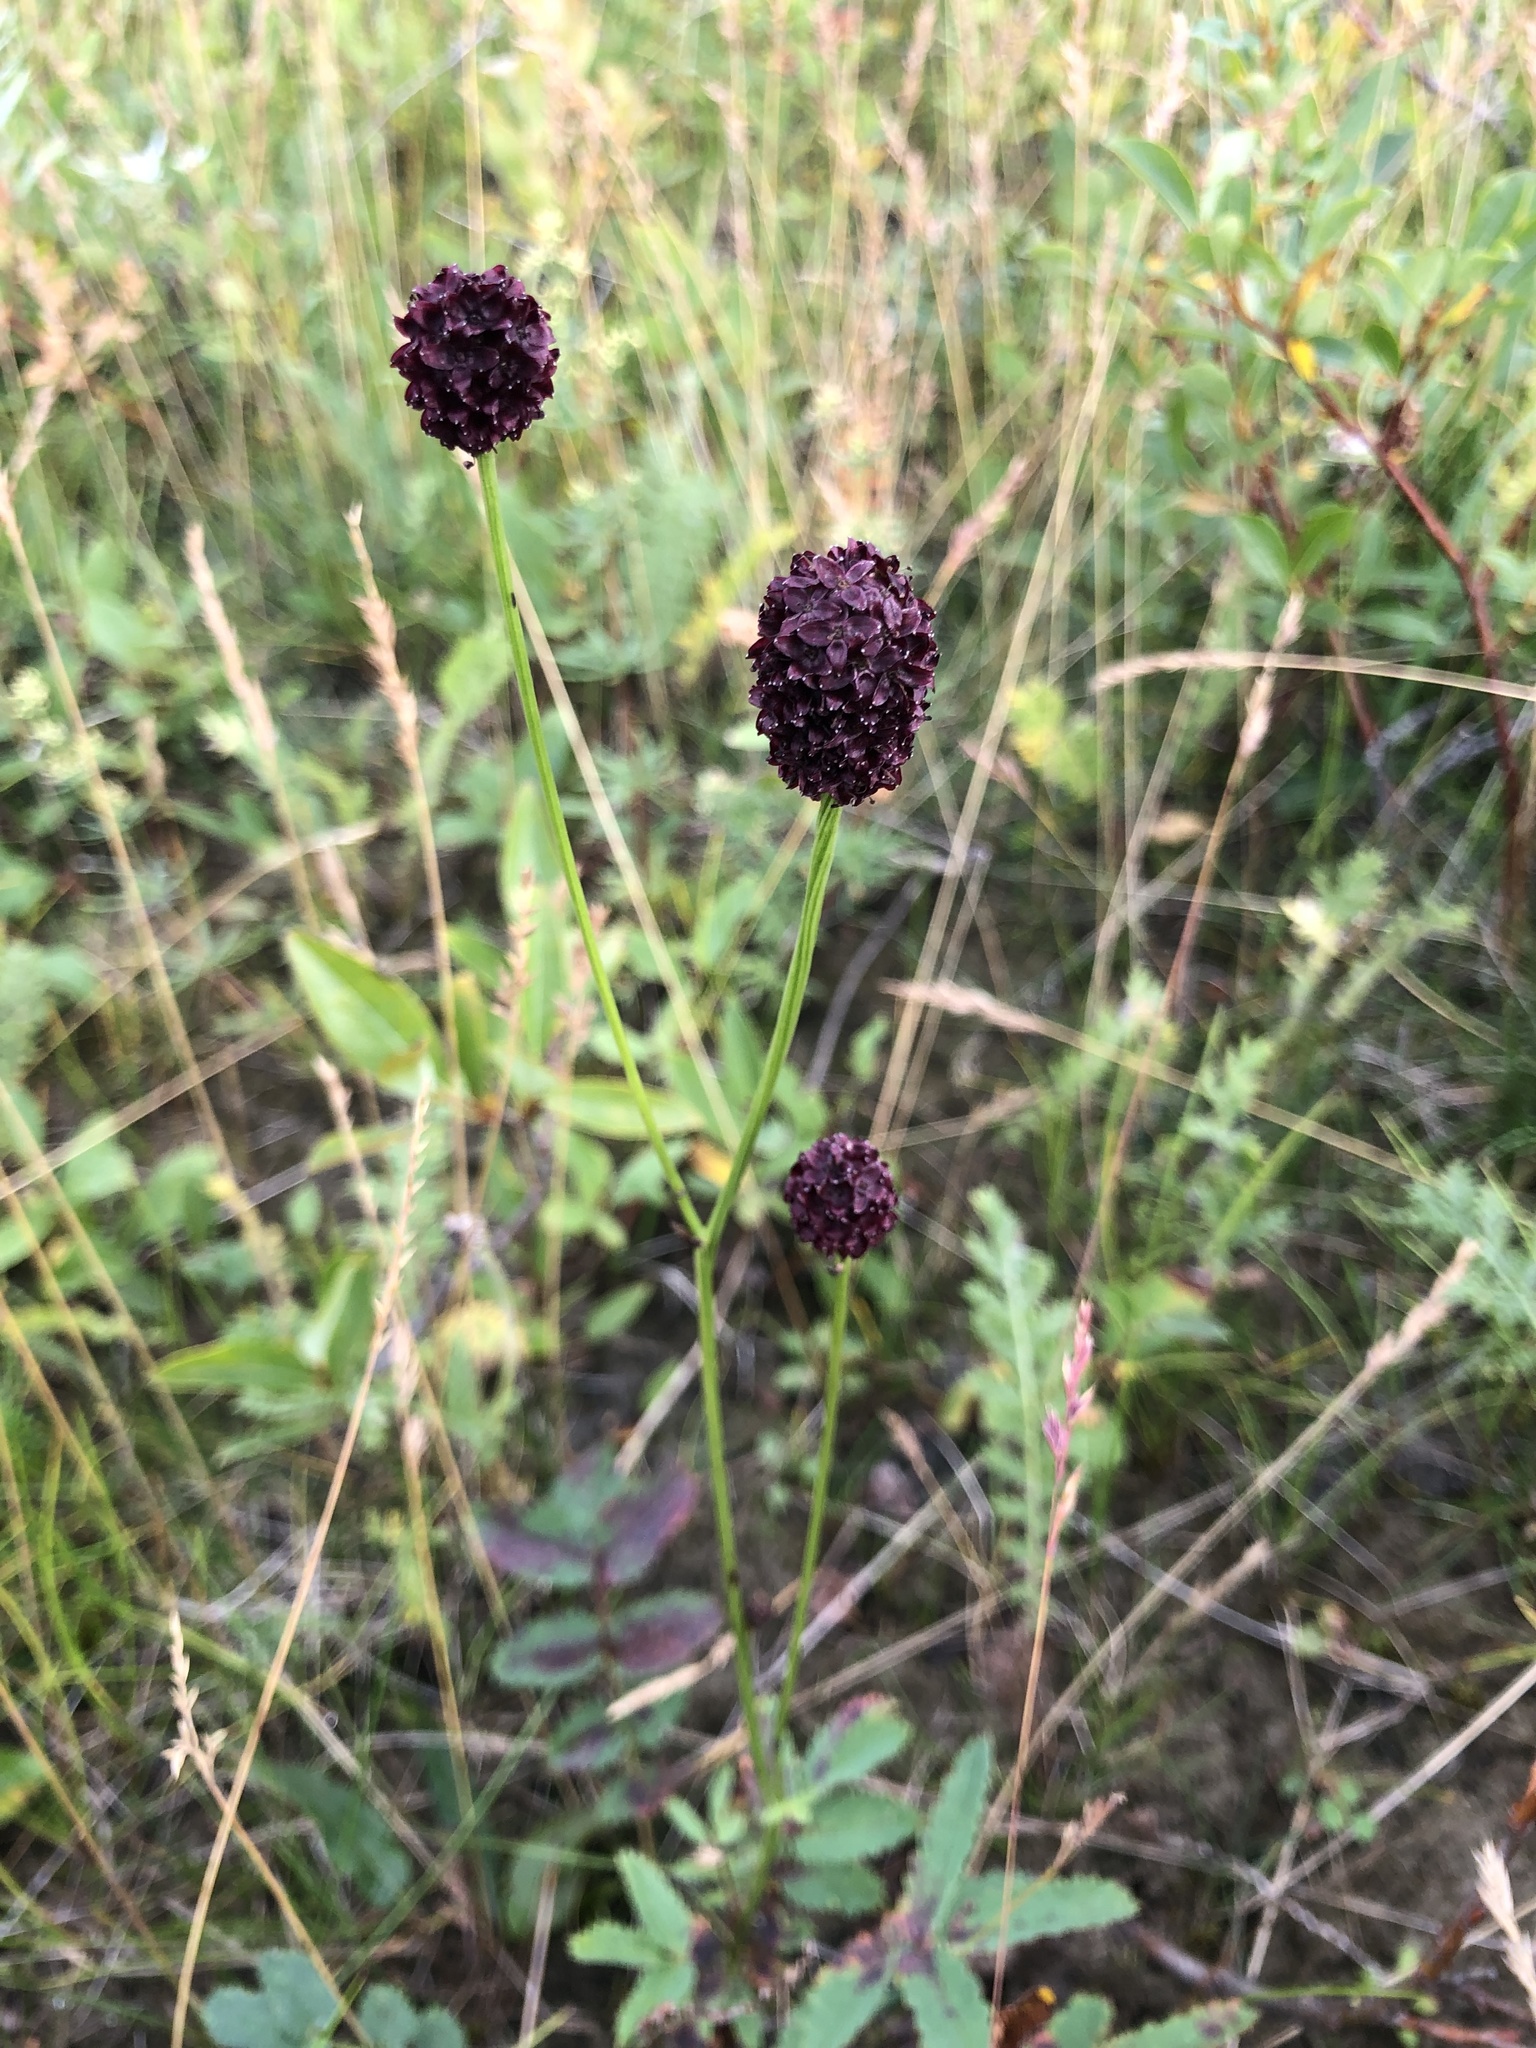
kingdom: Plantae
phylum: Tracheophyta
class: Magnoliopsida
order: Rosales
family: Rosaceae
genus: Sanguisorba
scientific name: Sanguisorba officinalis
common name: Great burnet
